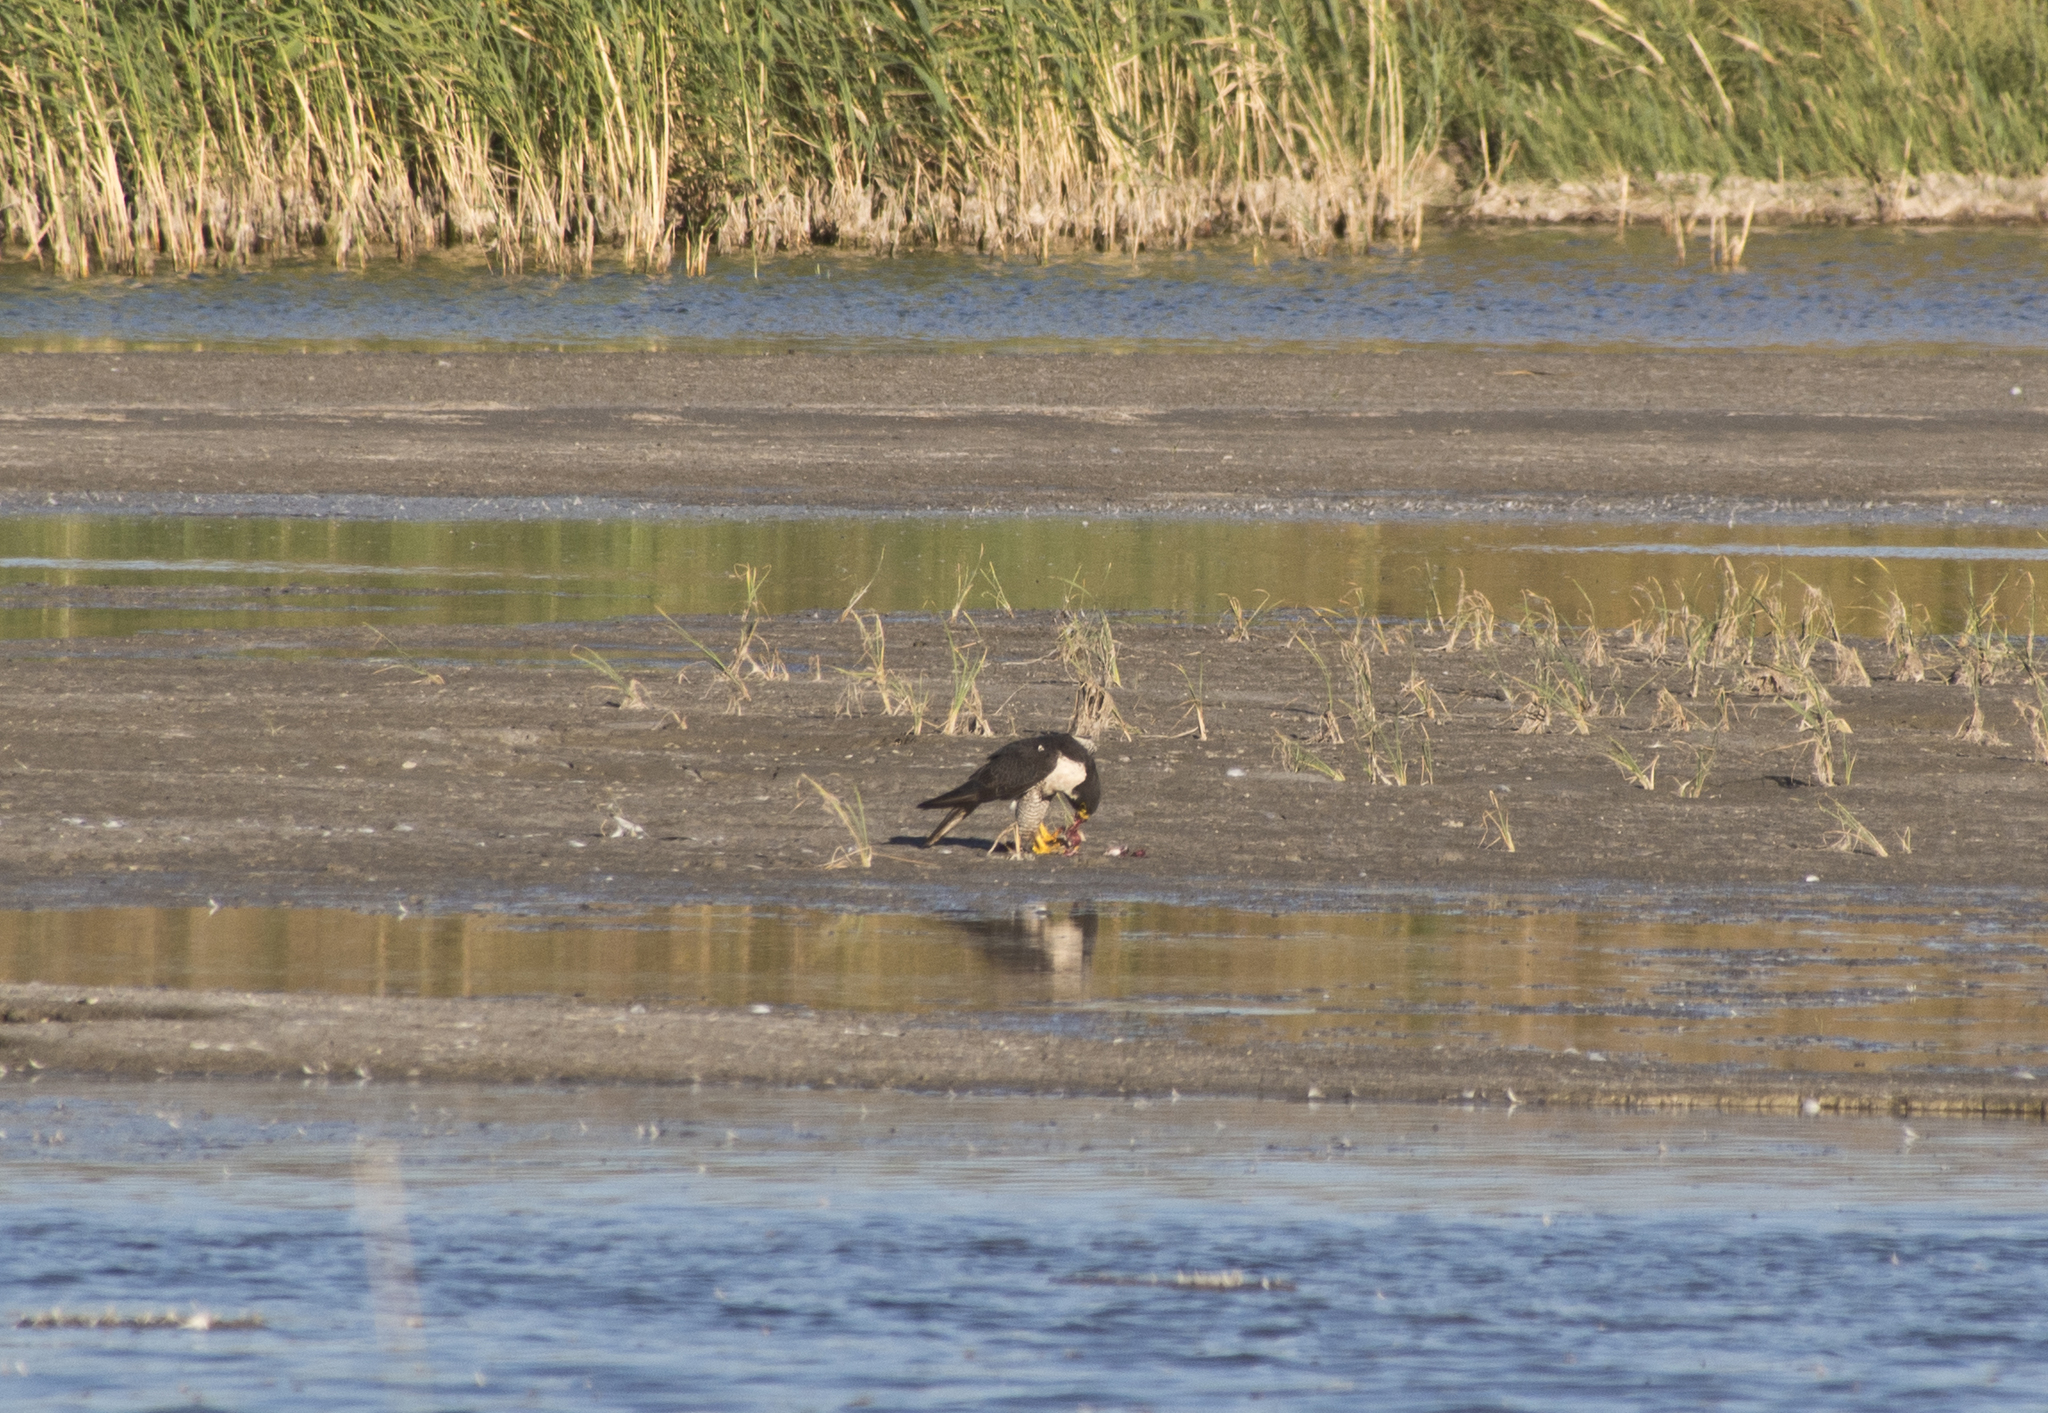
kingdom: Animalia
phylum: Chordata
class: Aves
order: Falconiformes
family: Falconidae
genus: Falco
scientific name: Falco peregrinus
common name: Peregrine falcon
